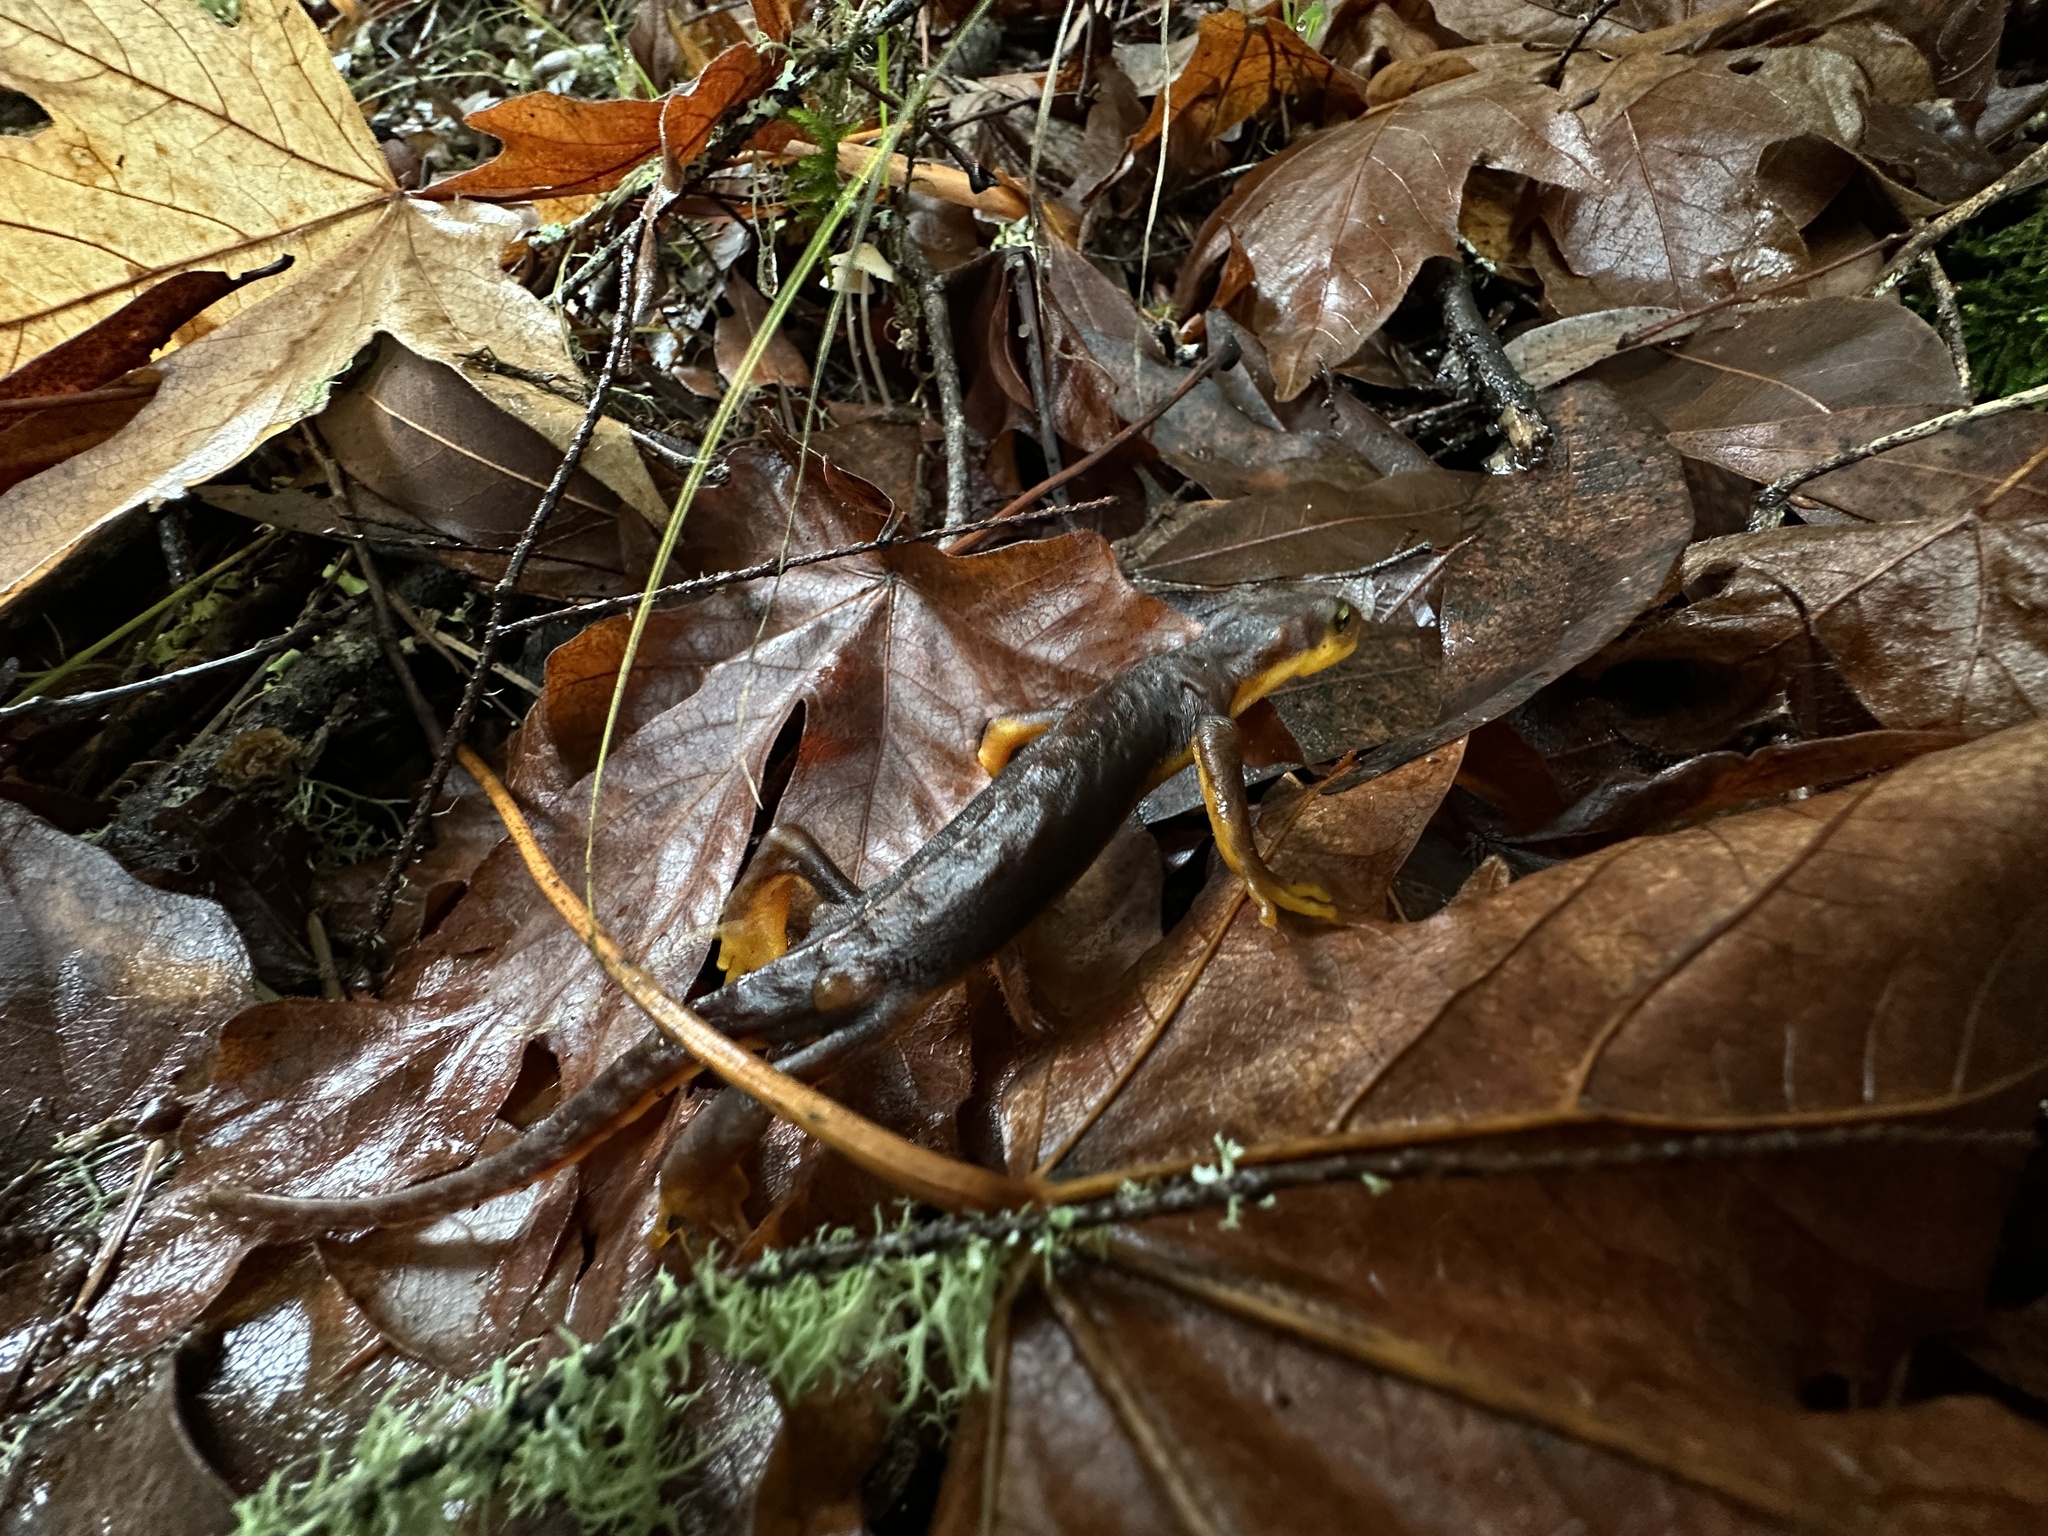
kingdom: Animalia
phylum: Chordata
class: Amphibia
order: Caudata
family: Salamandridae
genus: Taricha
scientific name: Taricha torosa
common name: California newt
